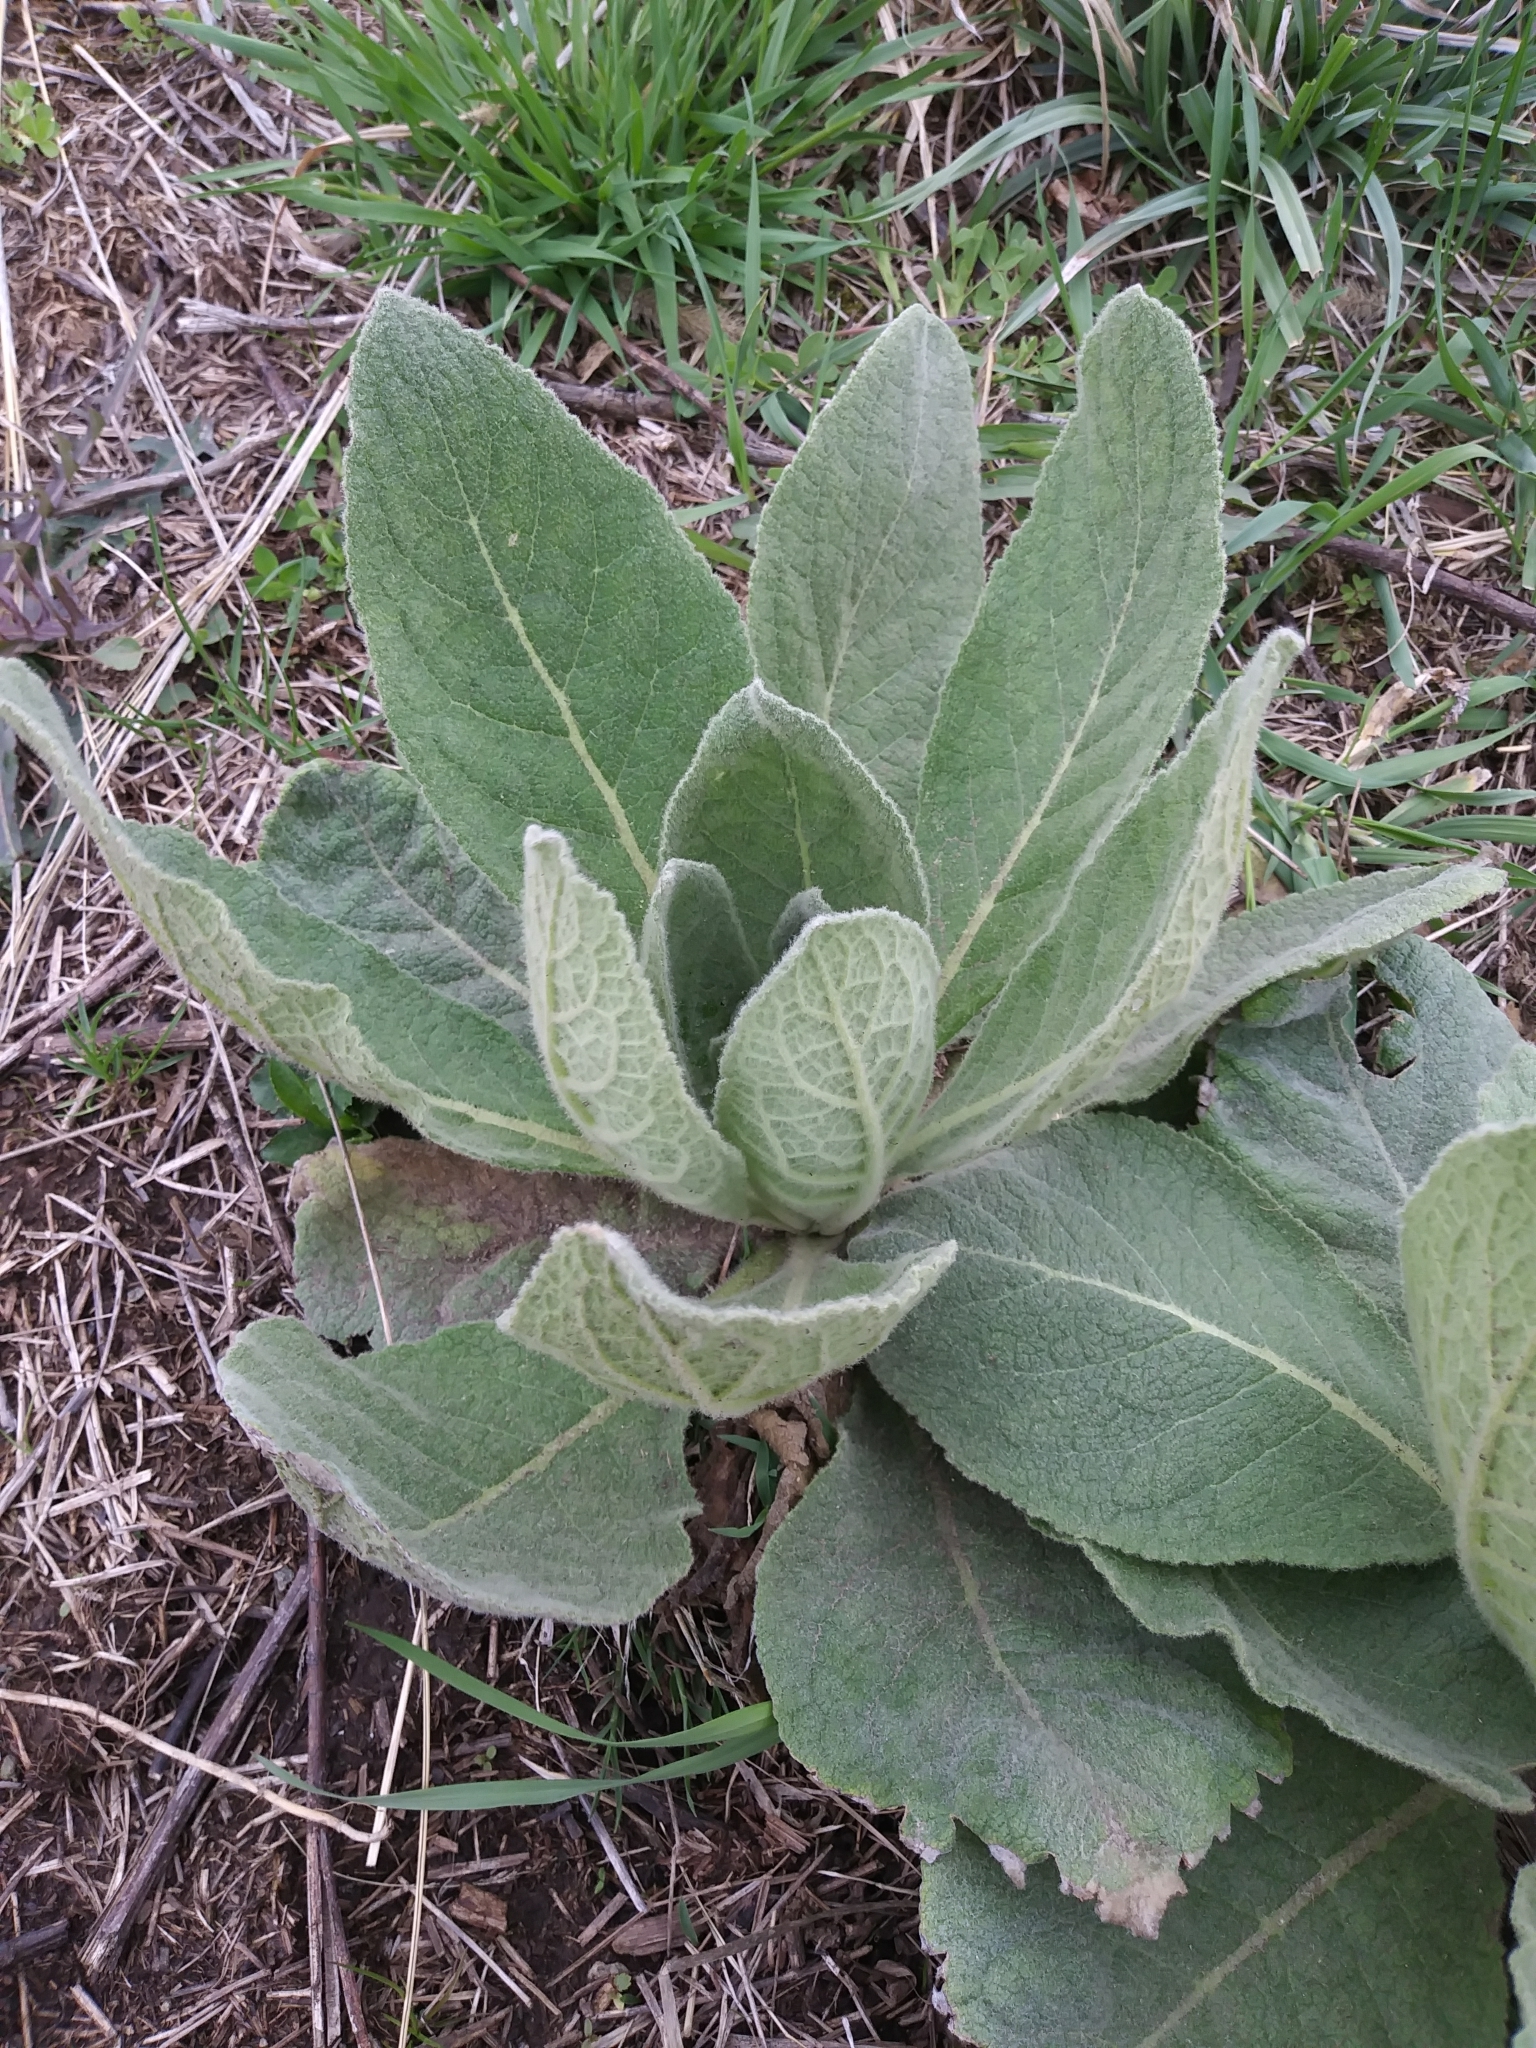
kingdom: Plantae
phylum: Tracheophyta
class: Magnoliopsida
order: Lamiales
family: Scrophulariaceae
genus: Verbascum
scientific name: Verbascum thapsus
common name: Common mullein
